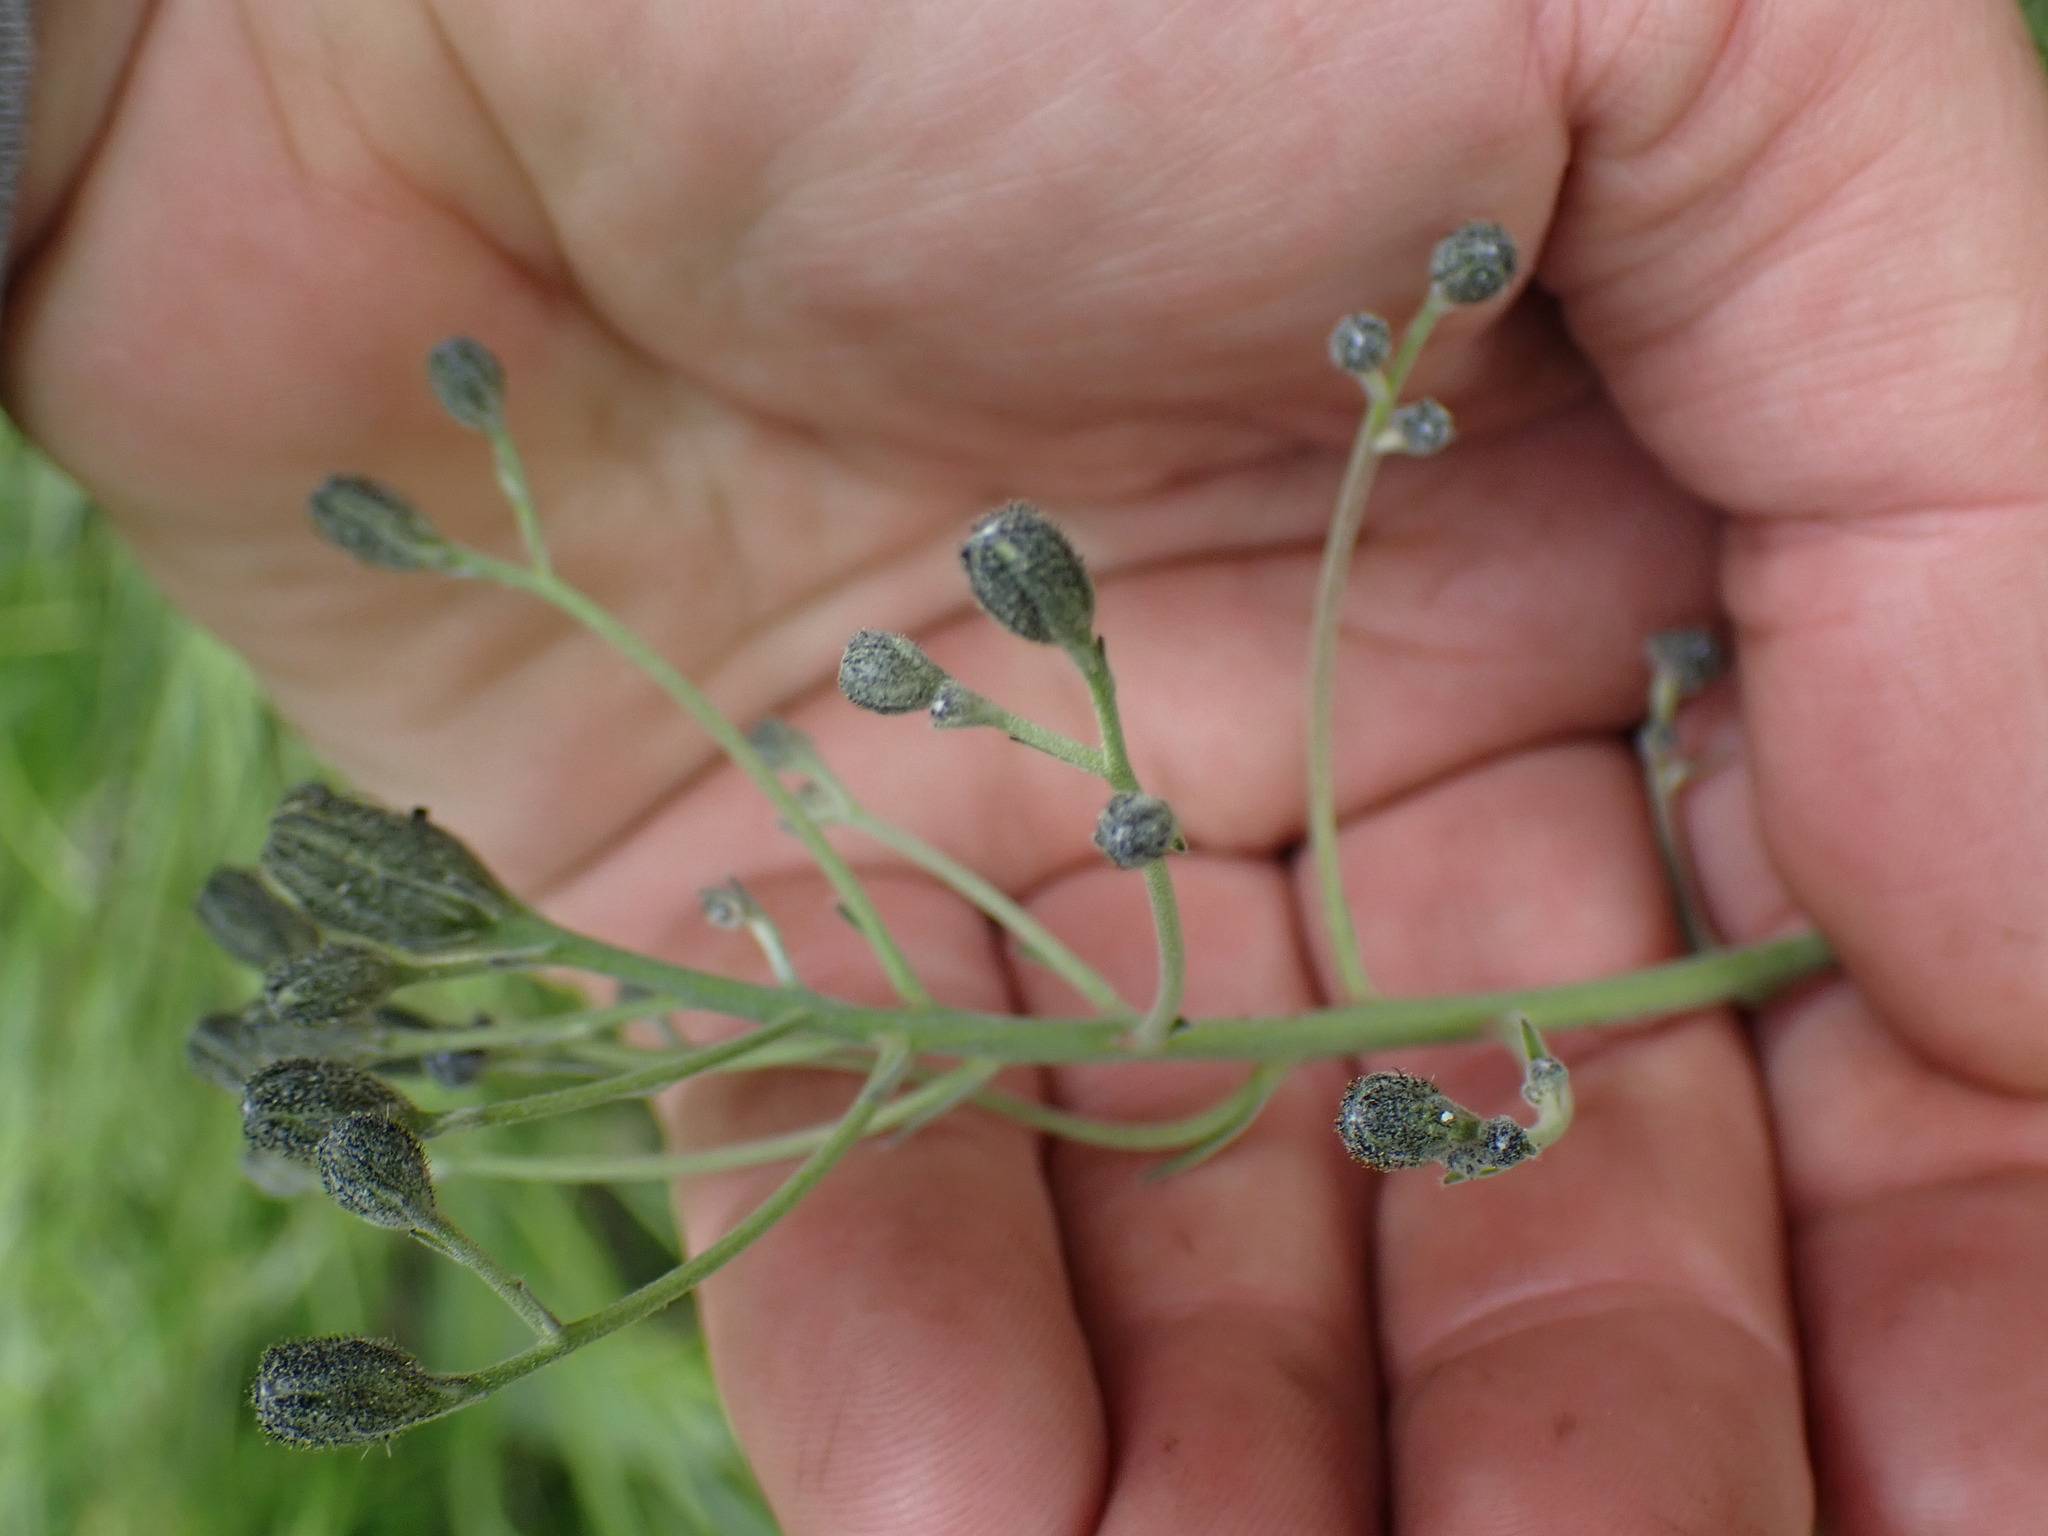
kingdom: Plantae
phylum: Tracheophyta
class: Magnoliopsida
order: Asterales
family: Asteraceae
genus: Hieracium
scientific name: Hieracium scouleri
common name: Hound's-tongue hawkweed
